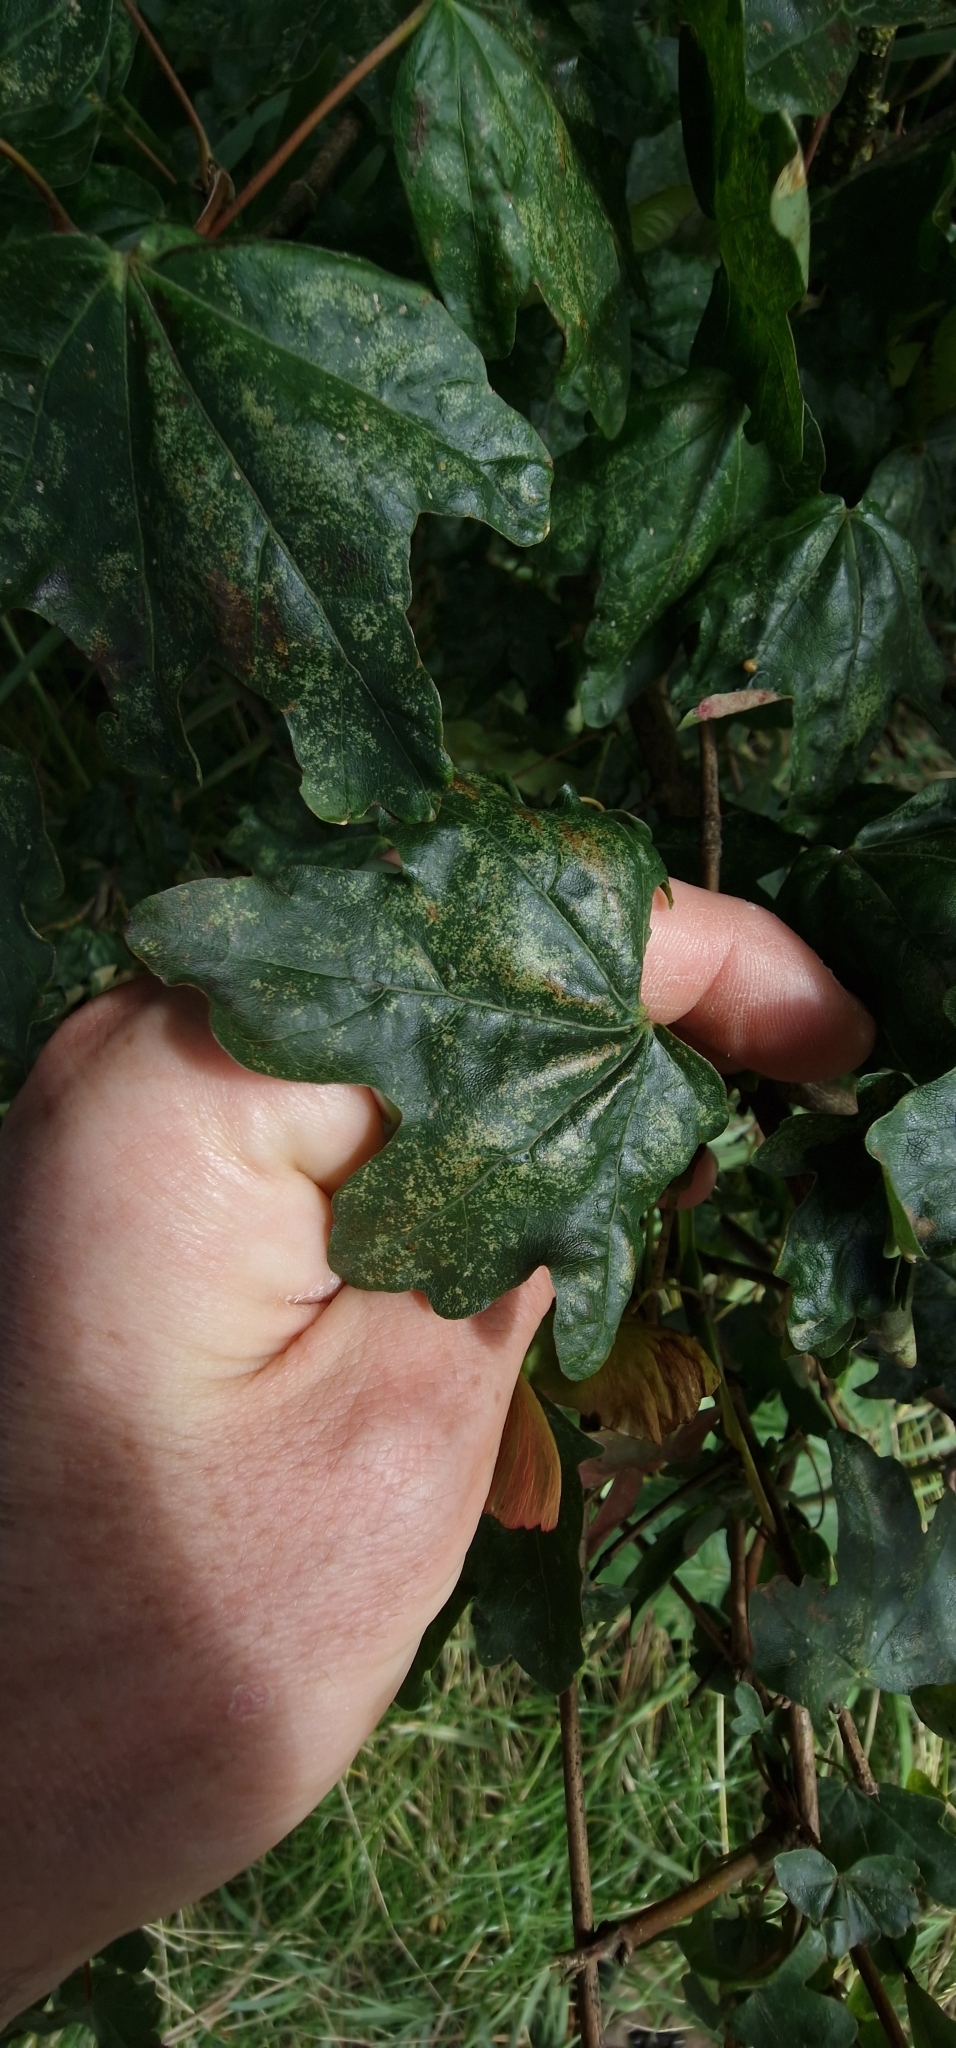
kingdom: Plantae
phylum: Tracheophyta
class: Magnoliopsida
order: Sapindales
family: Sapindaceae
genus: Acer
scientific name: Acer campestre
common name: Field maple
